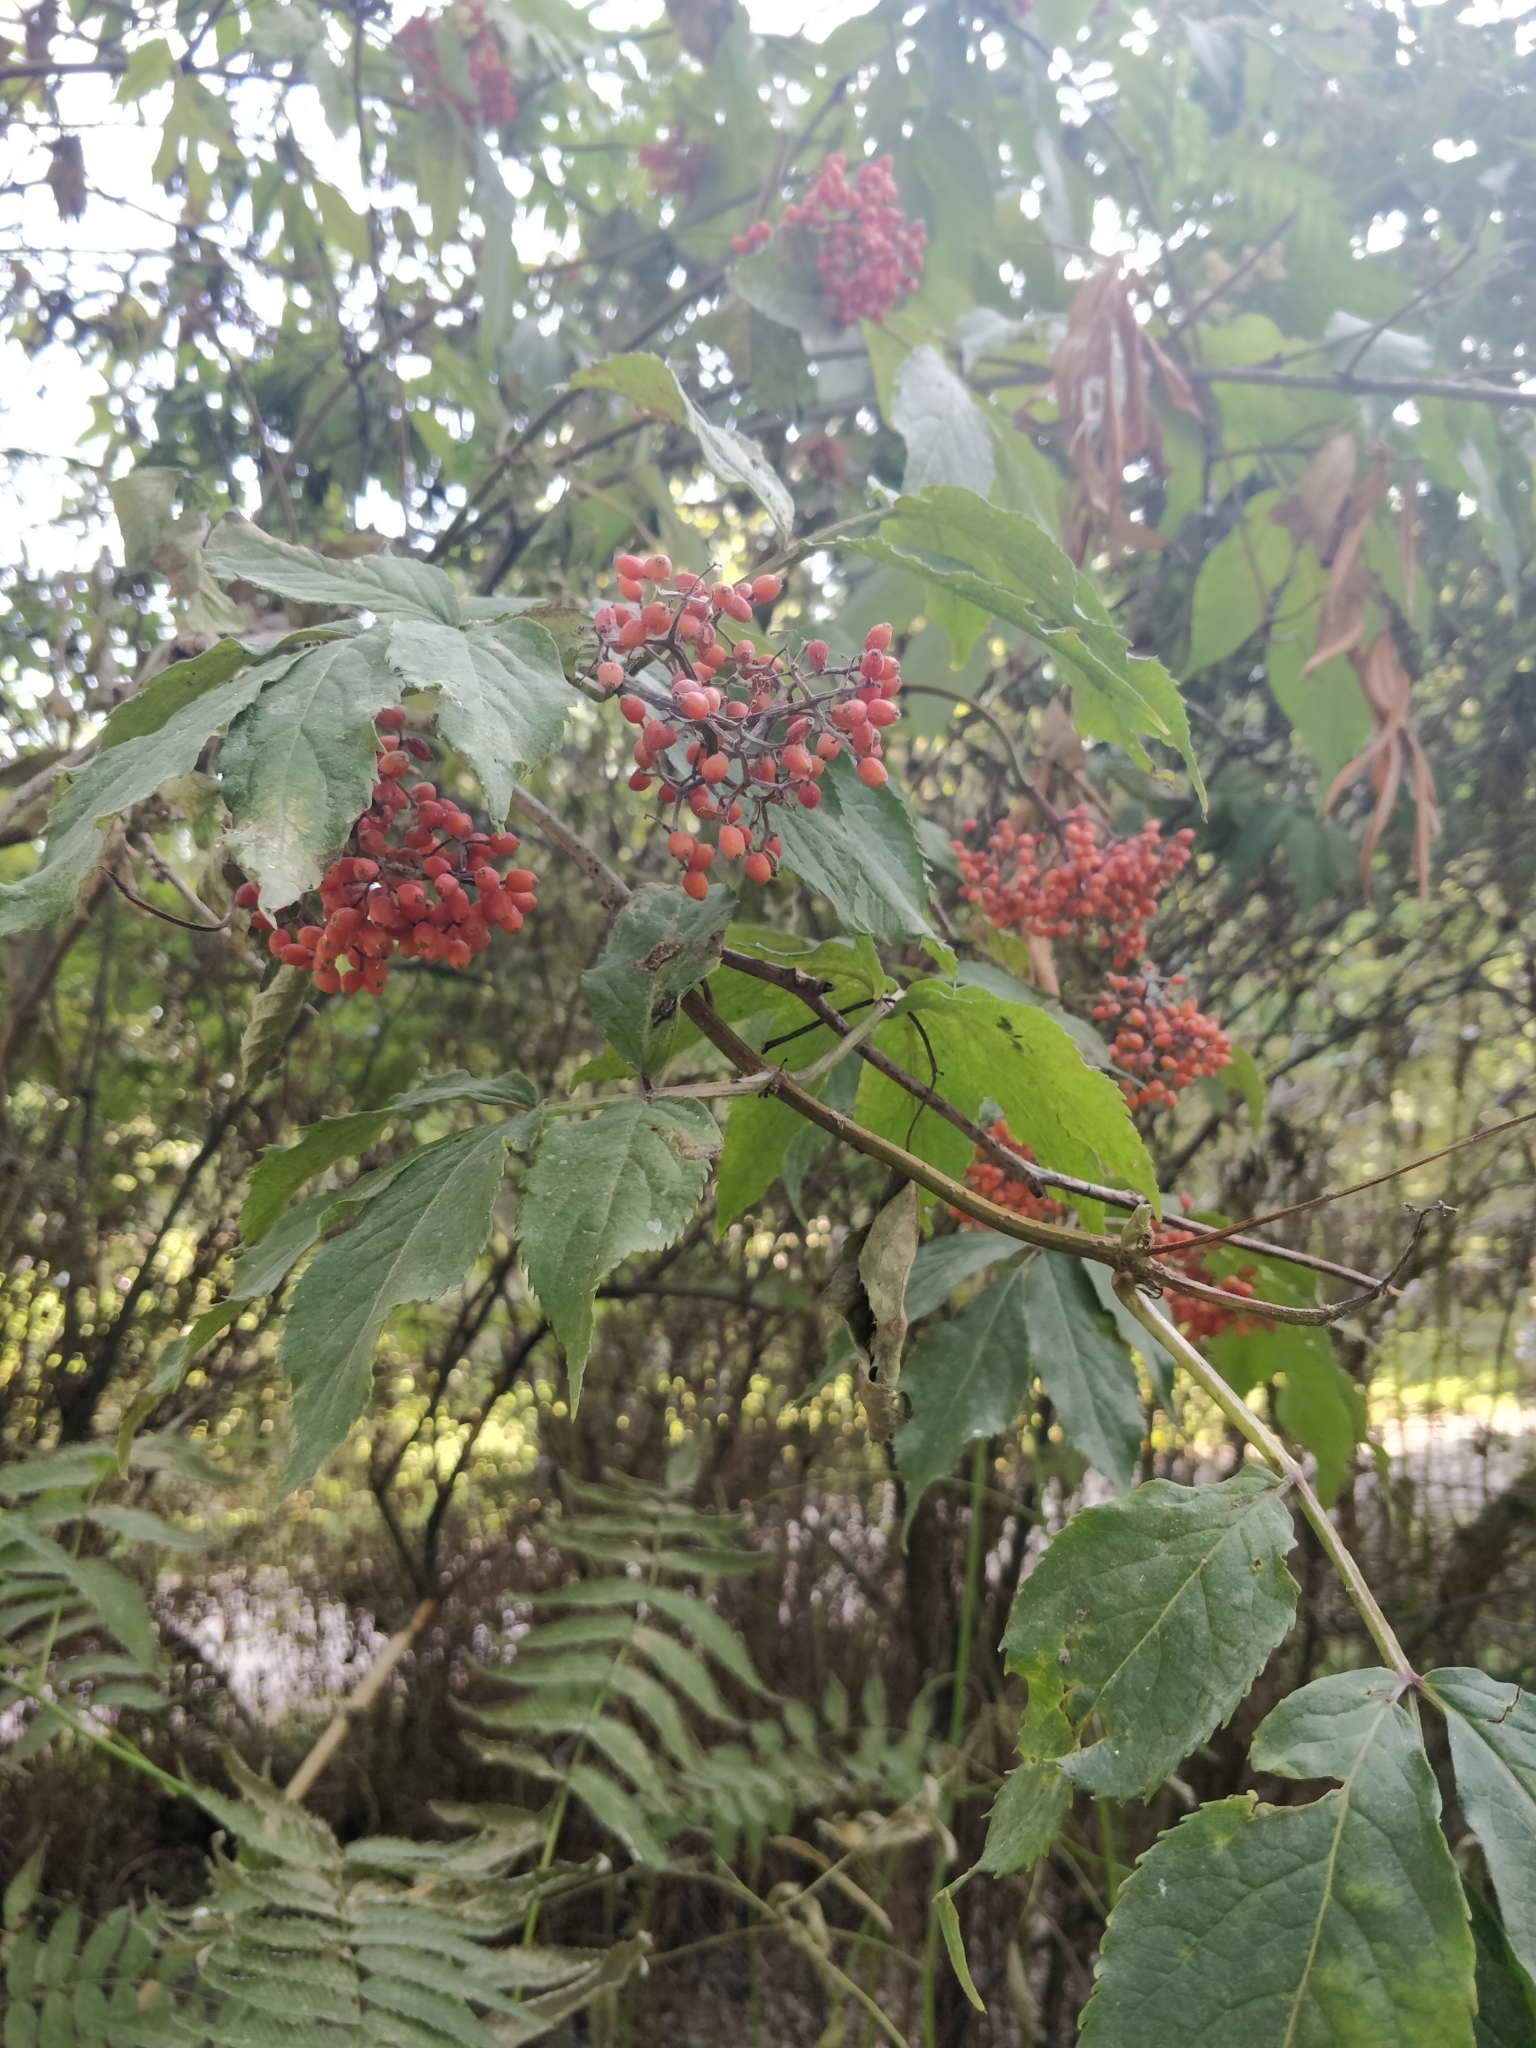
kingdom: Plantae
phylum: Tracheophyta
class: Magnoliopsida
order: Dipsacales
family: Viburnaceae
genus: Sambucus
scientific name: Sambucus racemosa
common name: Red-berried elder
